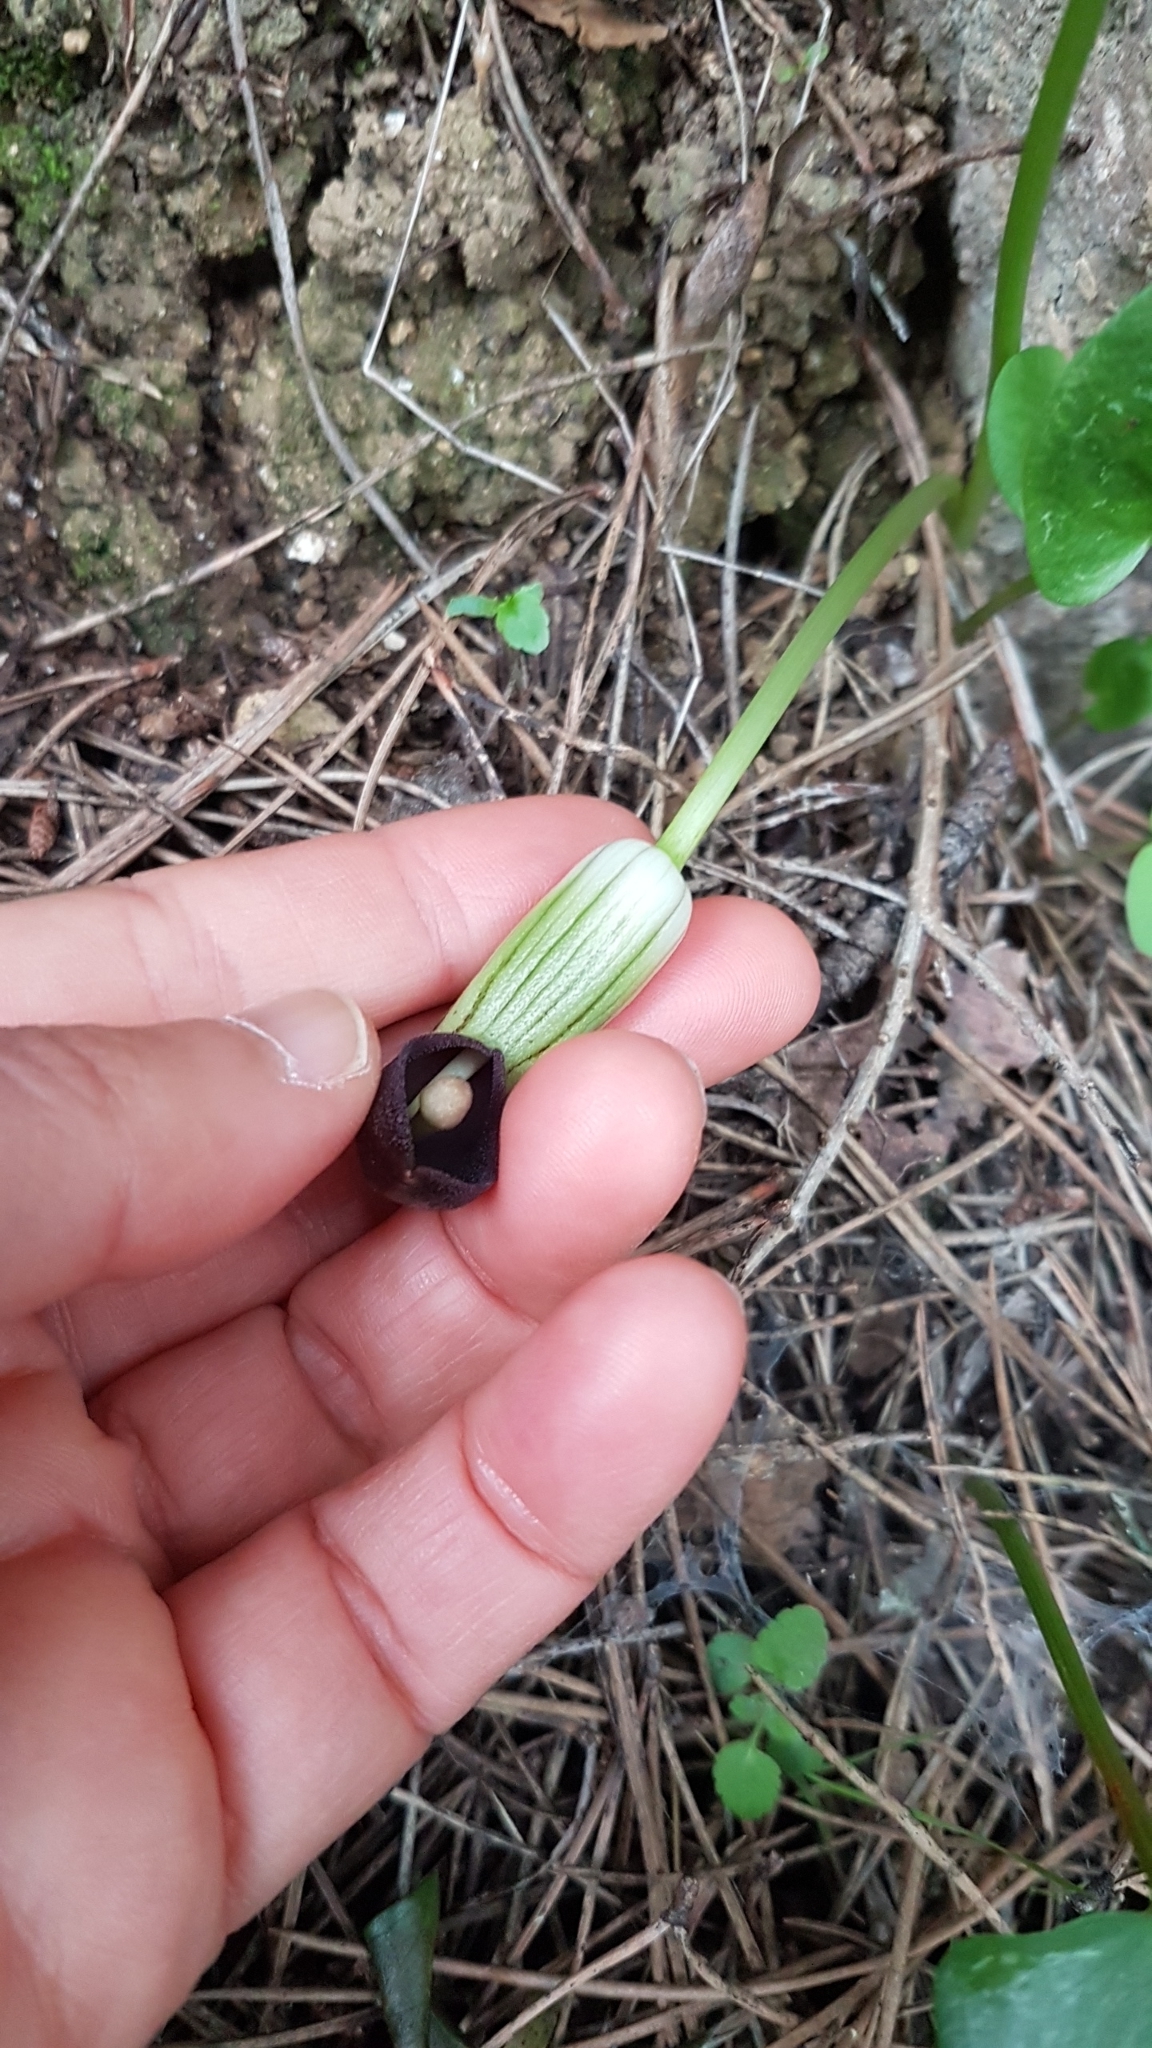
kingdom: Plantae
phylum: Tracheophyta
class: Liliopsida
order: Alismatales
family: Araceae
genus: Arisarum
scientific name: Arisarum simorrhinum
